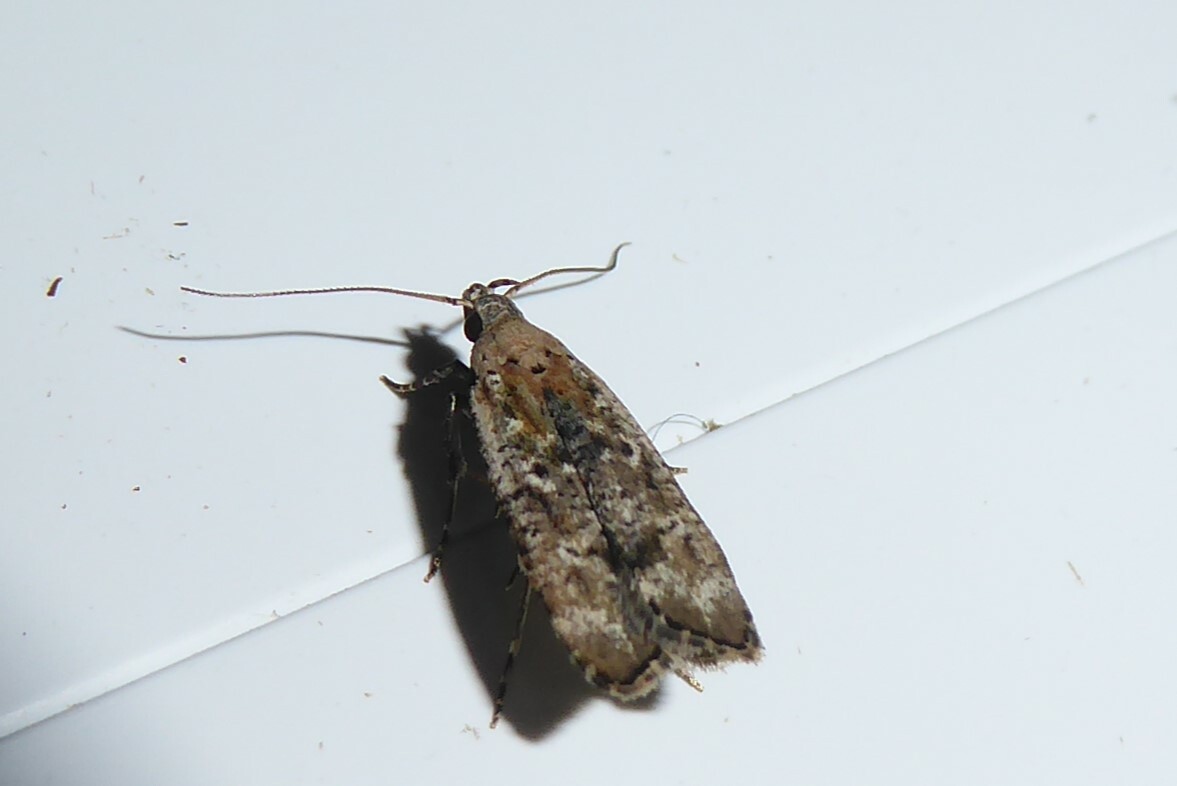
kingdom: Animalia
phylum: Arthropoda
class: Insecta
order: Lepidoptera
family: Gelechiidae
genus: Anisoplaca
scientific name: Anisoplaca achyrota
